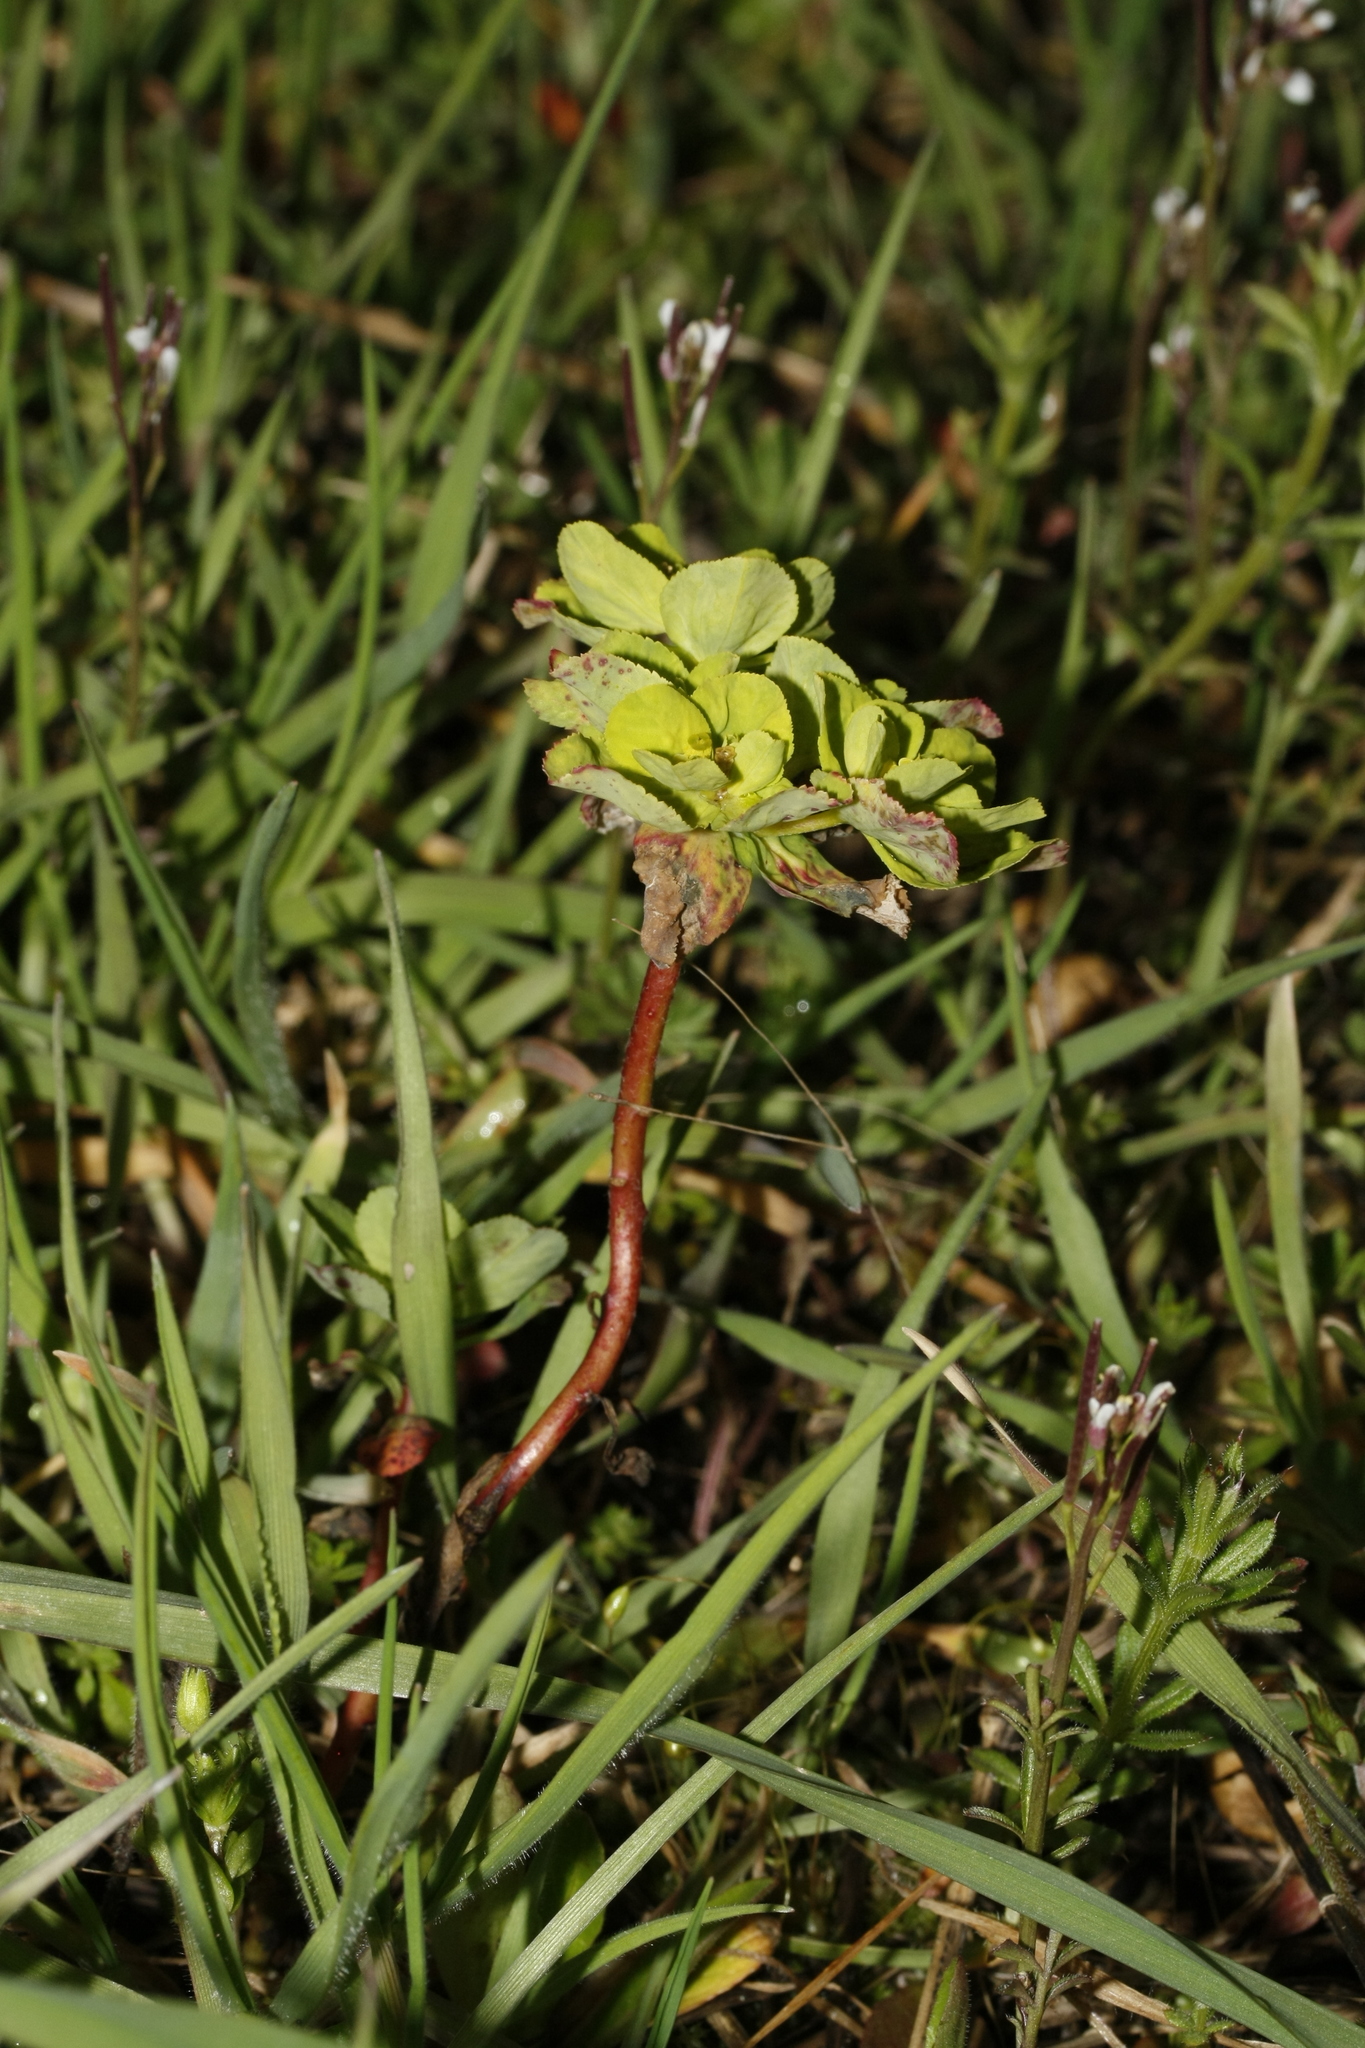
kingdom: Plantae
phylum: Tracheophyta
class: Magnoliopsida
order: Malpighiales
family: Euphorbiaceae
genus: Euphorbia
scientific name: Euphorbia helioscopia
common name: Sun spurge
